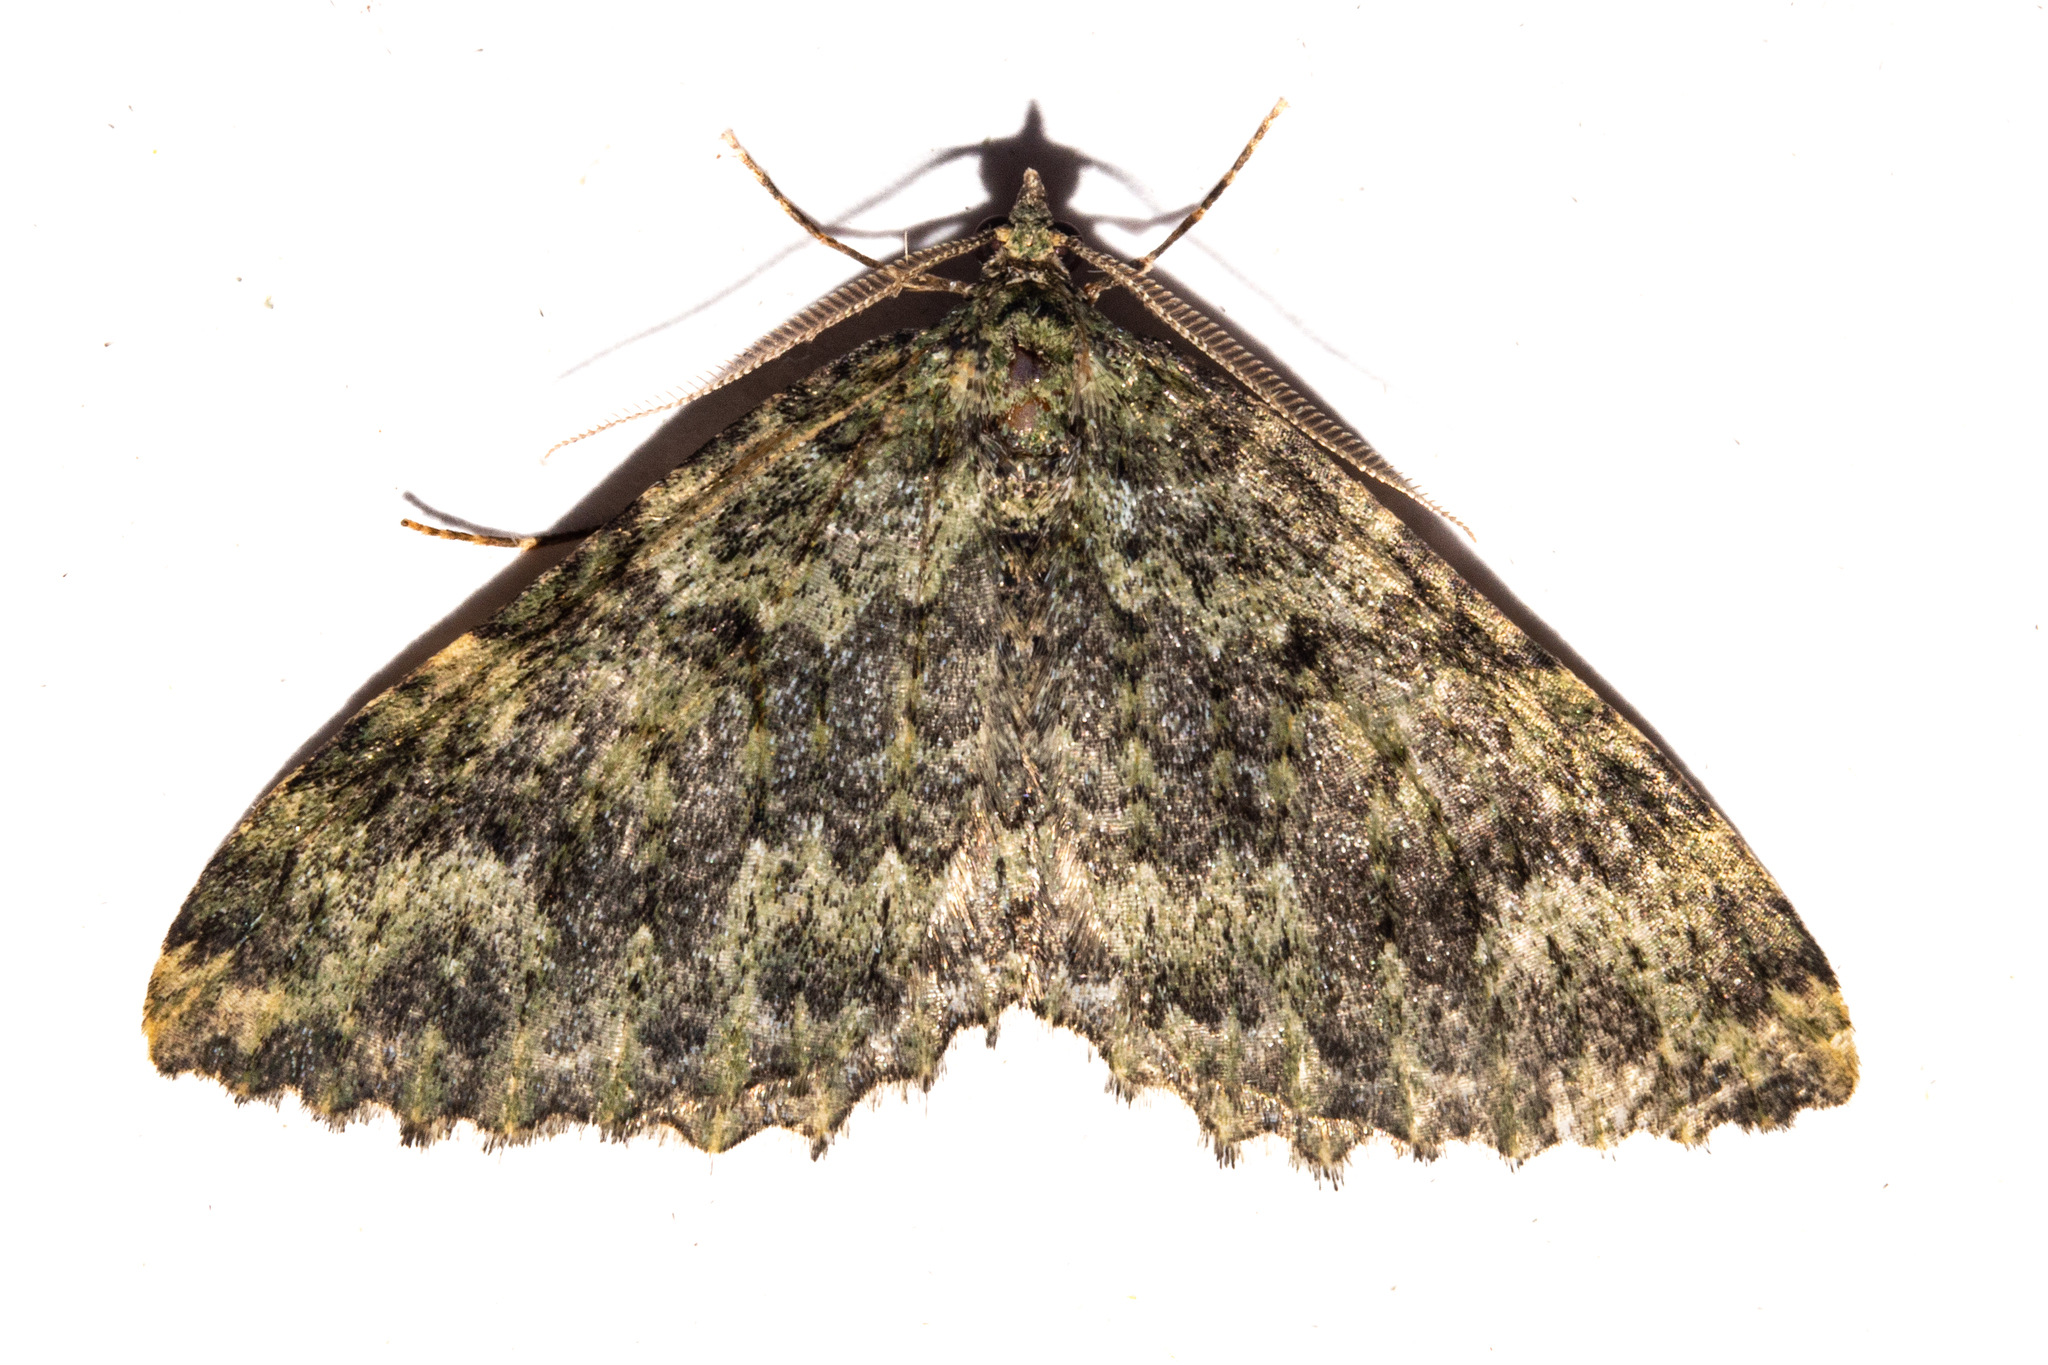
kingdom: Animalia
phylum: Arthropoda
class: Insecta
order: Lepidoptera
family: Geometridae
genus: Austrocidaria
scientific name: Austrocidaria umbrosa
